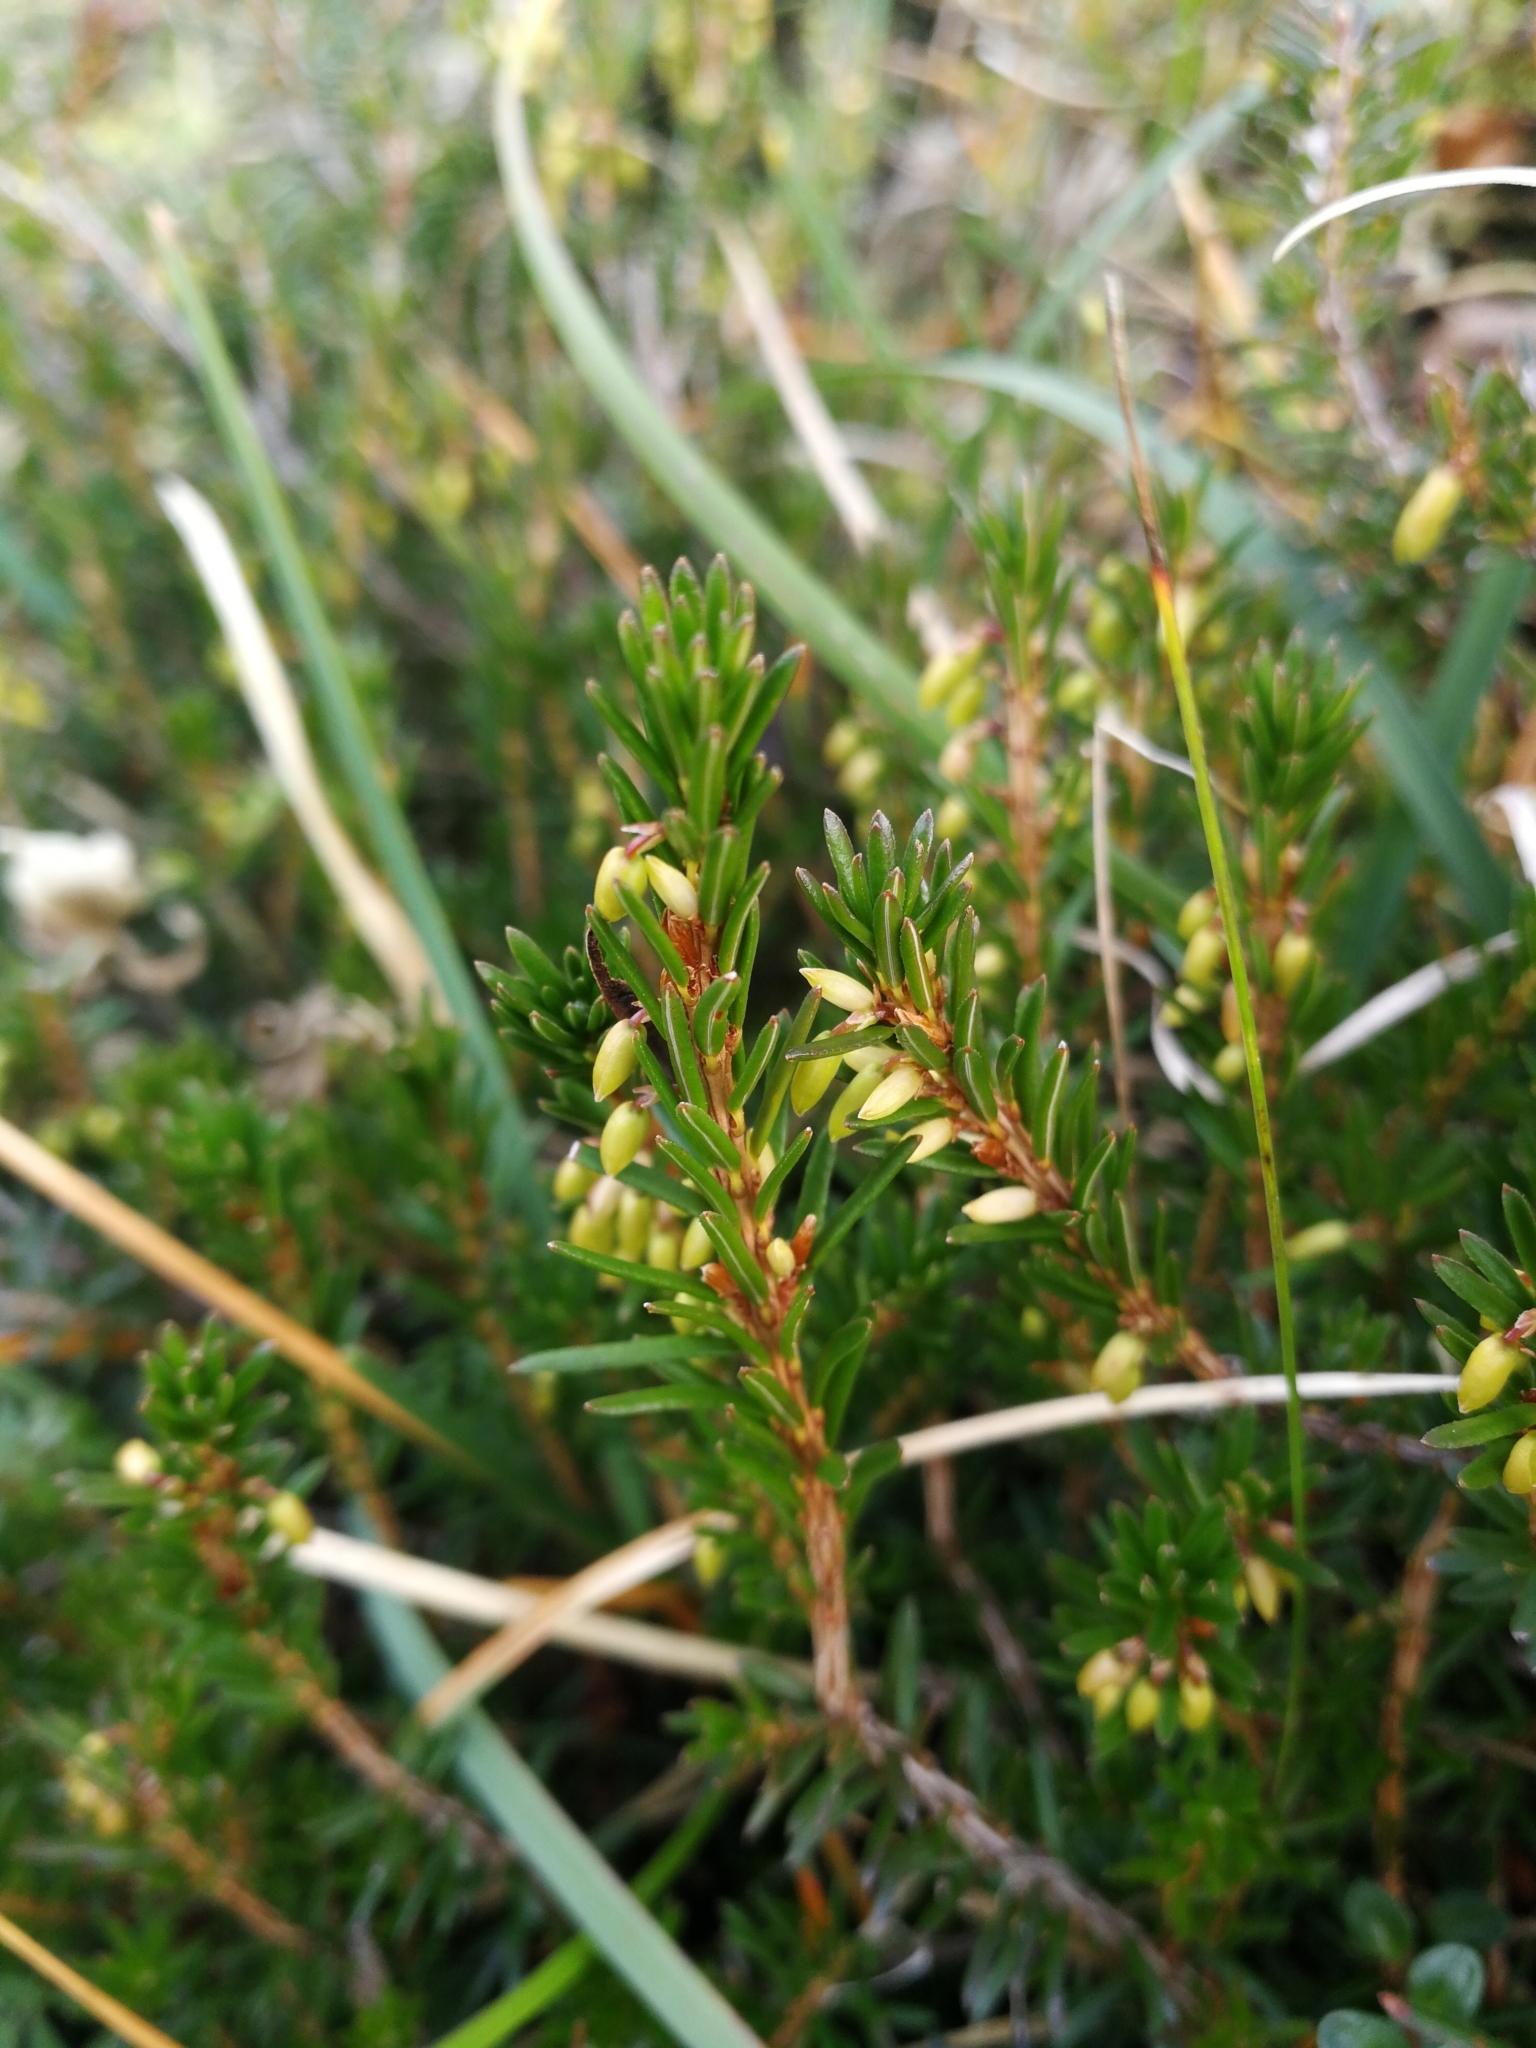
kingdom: Plantae
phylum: Tracheophyta
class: Magnoliopsida
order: Ericales
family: Ericaceae
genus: Erica
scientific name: Erica carnea
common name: Winter heath
